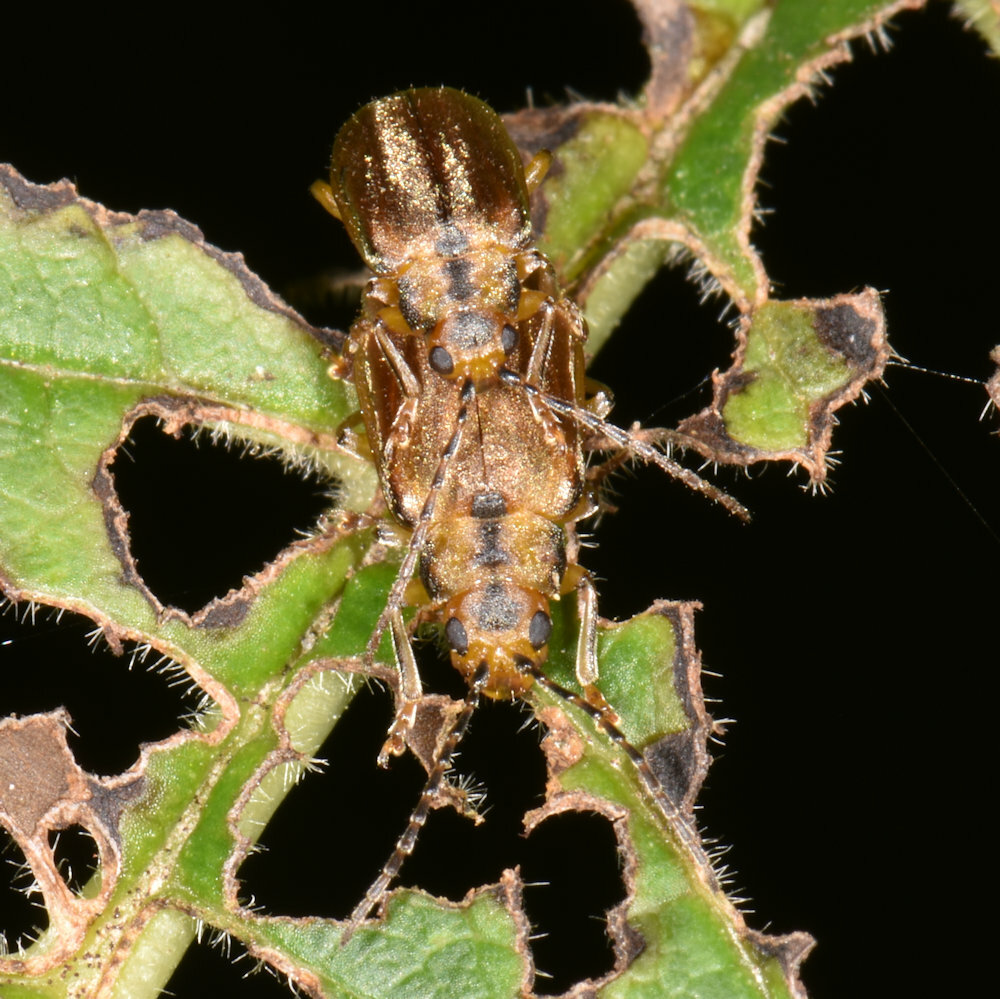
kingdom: Animalia
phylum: Arthropoda
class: Insecta
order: Coleoptera
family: Chrysomelidae
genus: Pyrrhalta
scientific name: Pyrrhalta viburni
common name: Guelder-rose leaf beetle
